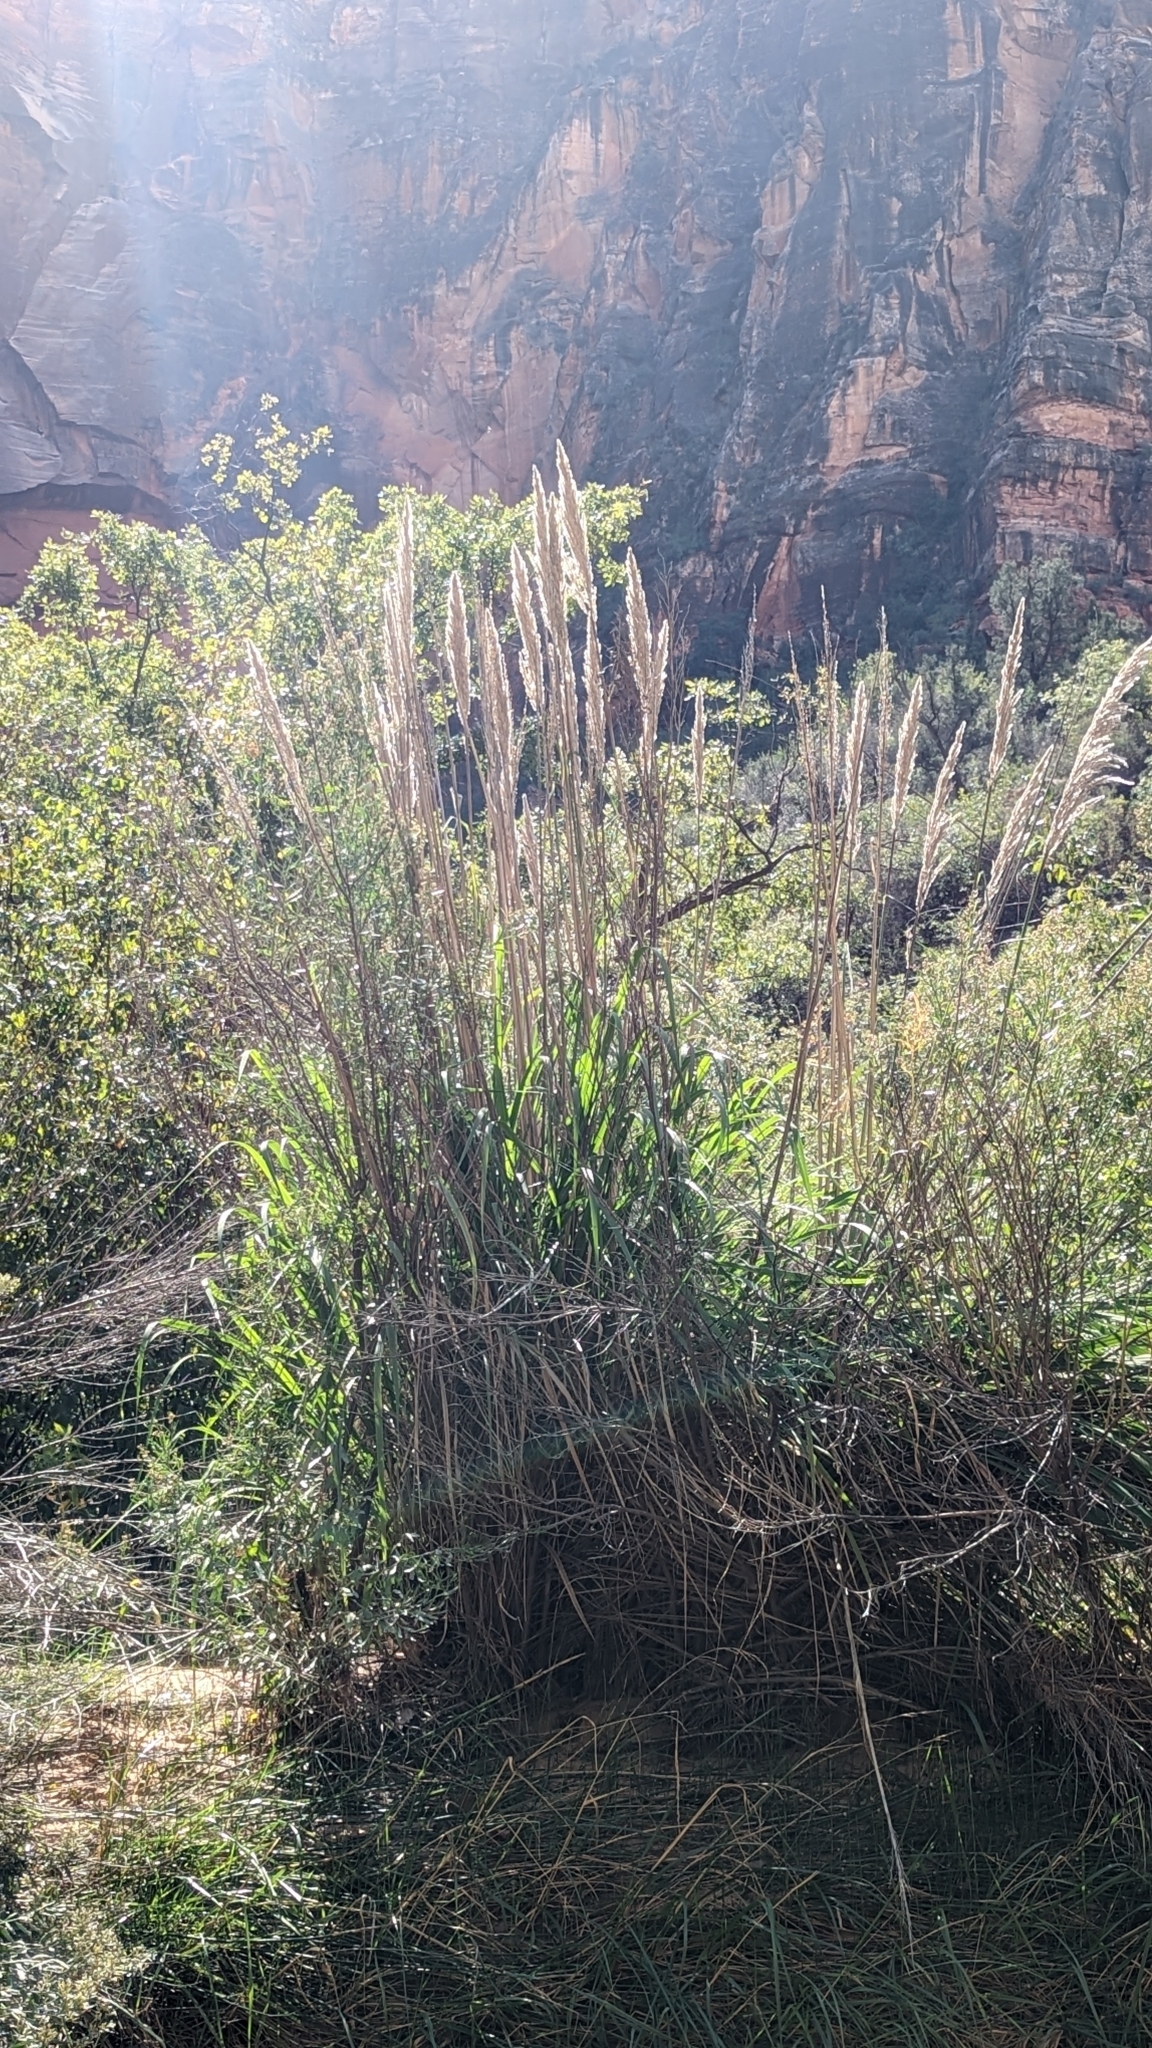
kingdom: Plantae
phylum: Tracheophyta
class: Liliopsida
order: Poales
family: Poaceae
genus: Cortaderia
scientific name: Cortaderia selloana
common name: Uruguayan pampas grass
